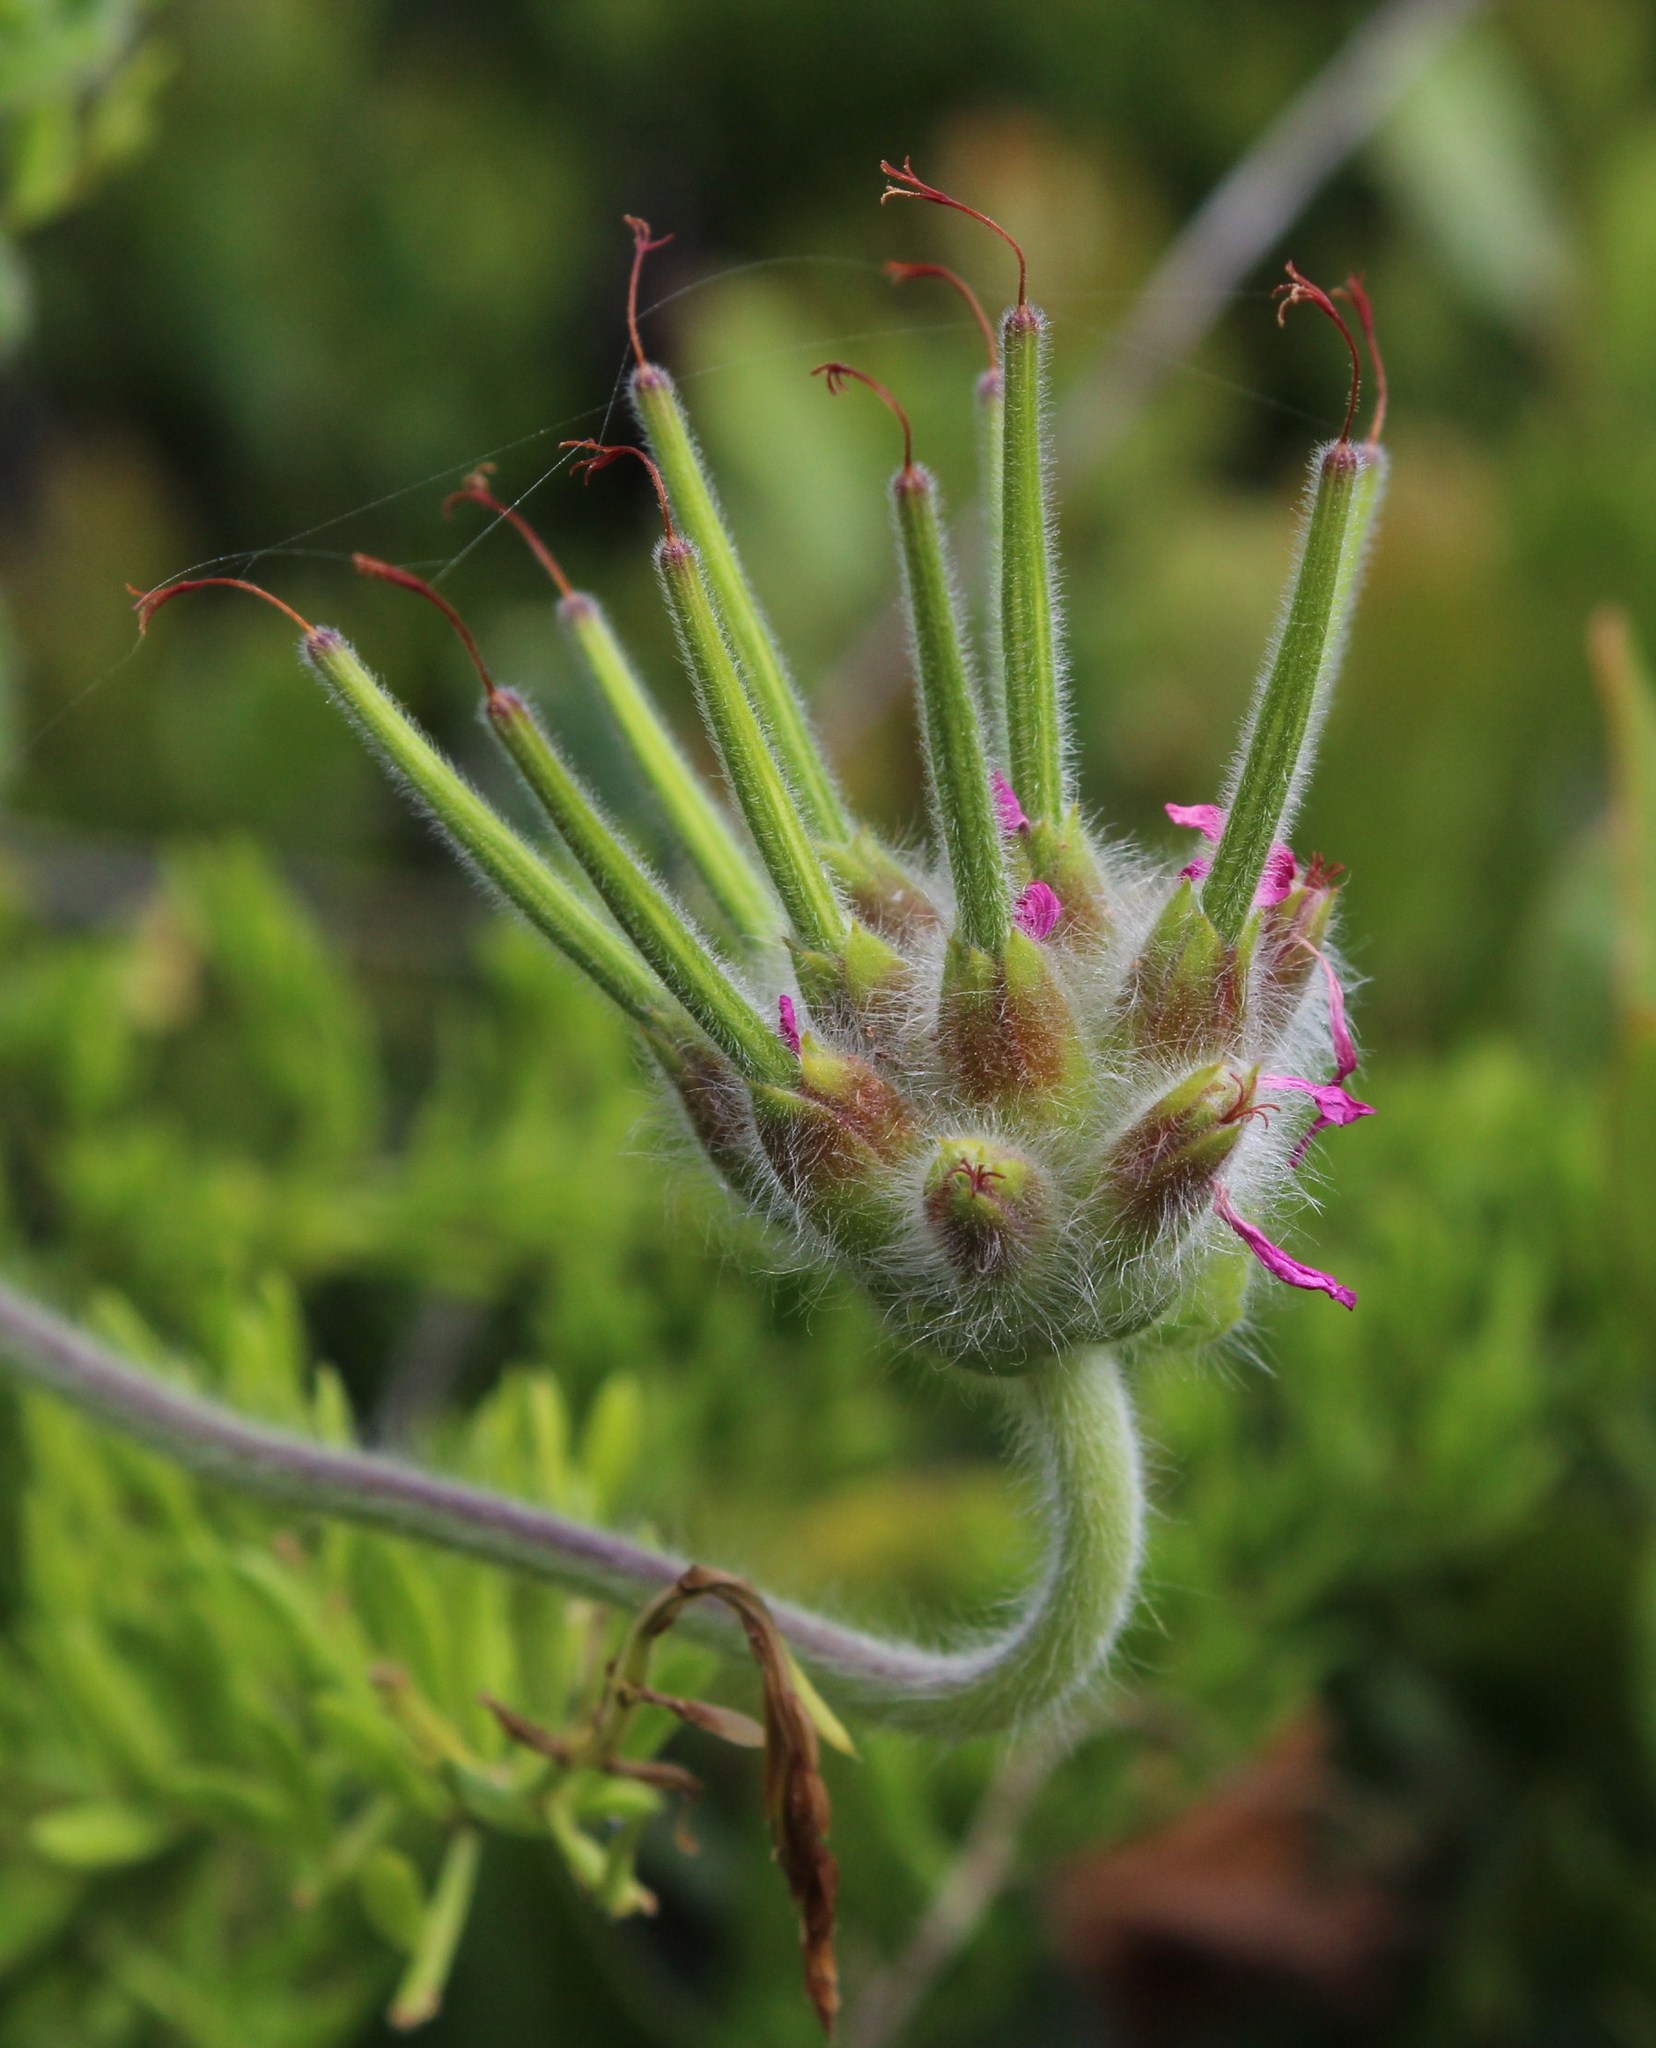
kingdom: Plantae
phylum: Tracheophyta
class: Magnoliopsida
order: Geraniales
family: Geraniaceae
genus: Pelargonium
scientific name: Pelargonium capitatum
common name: Rose scented geranium
